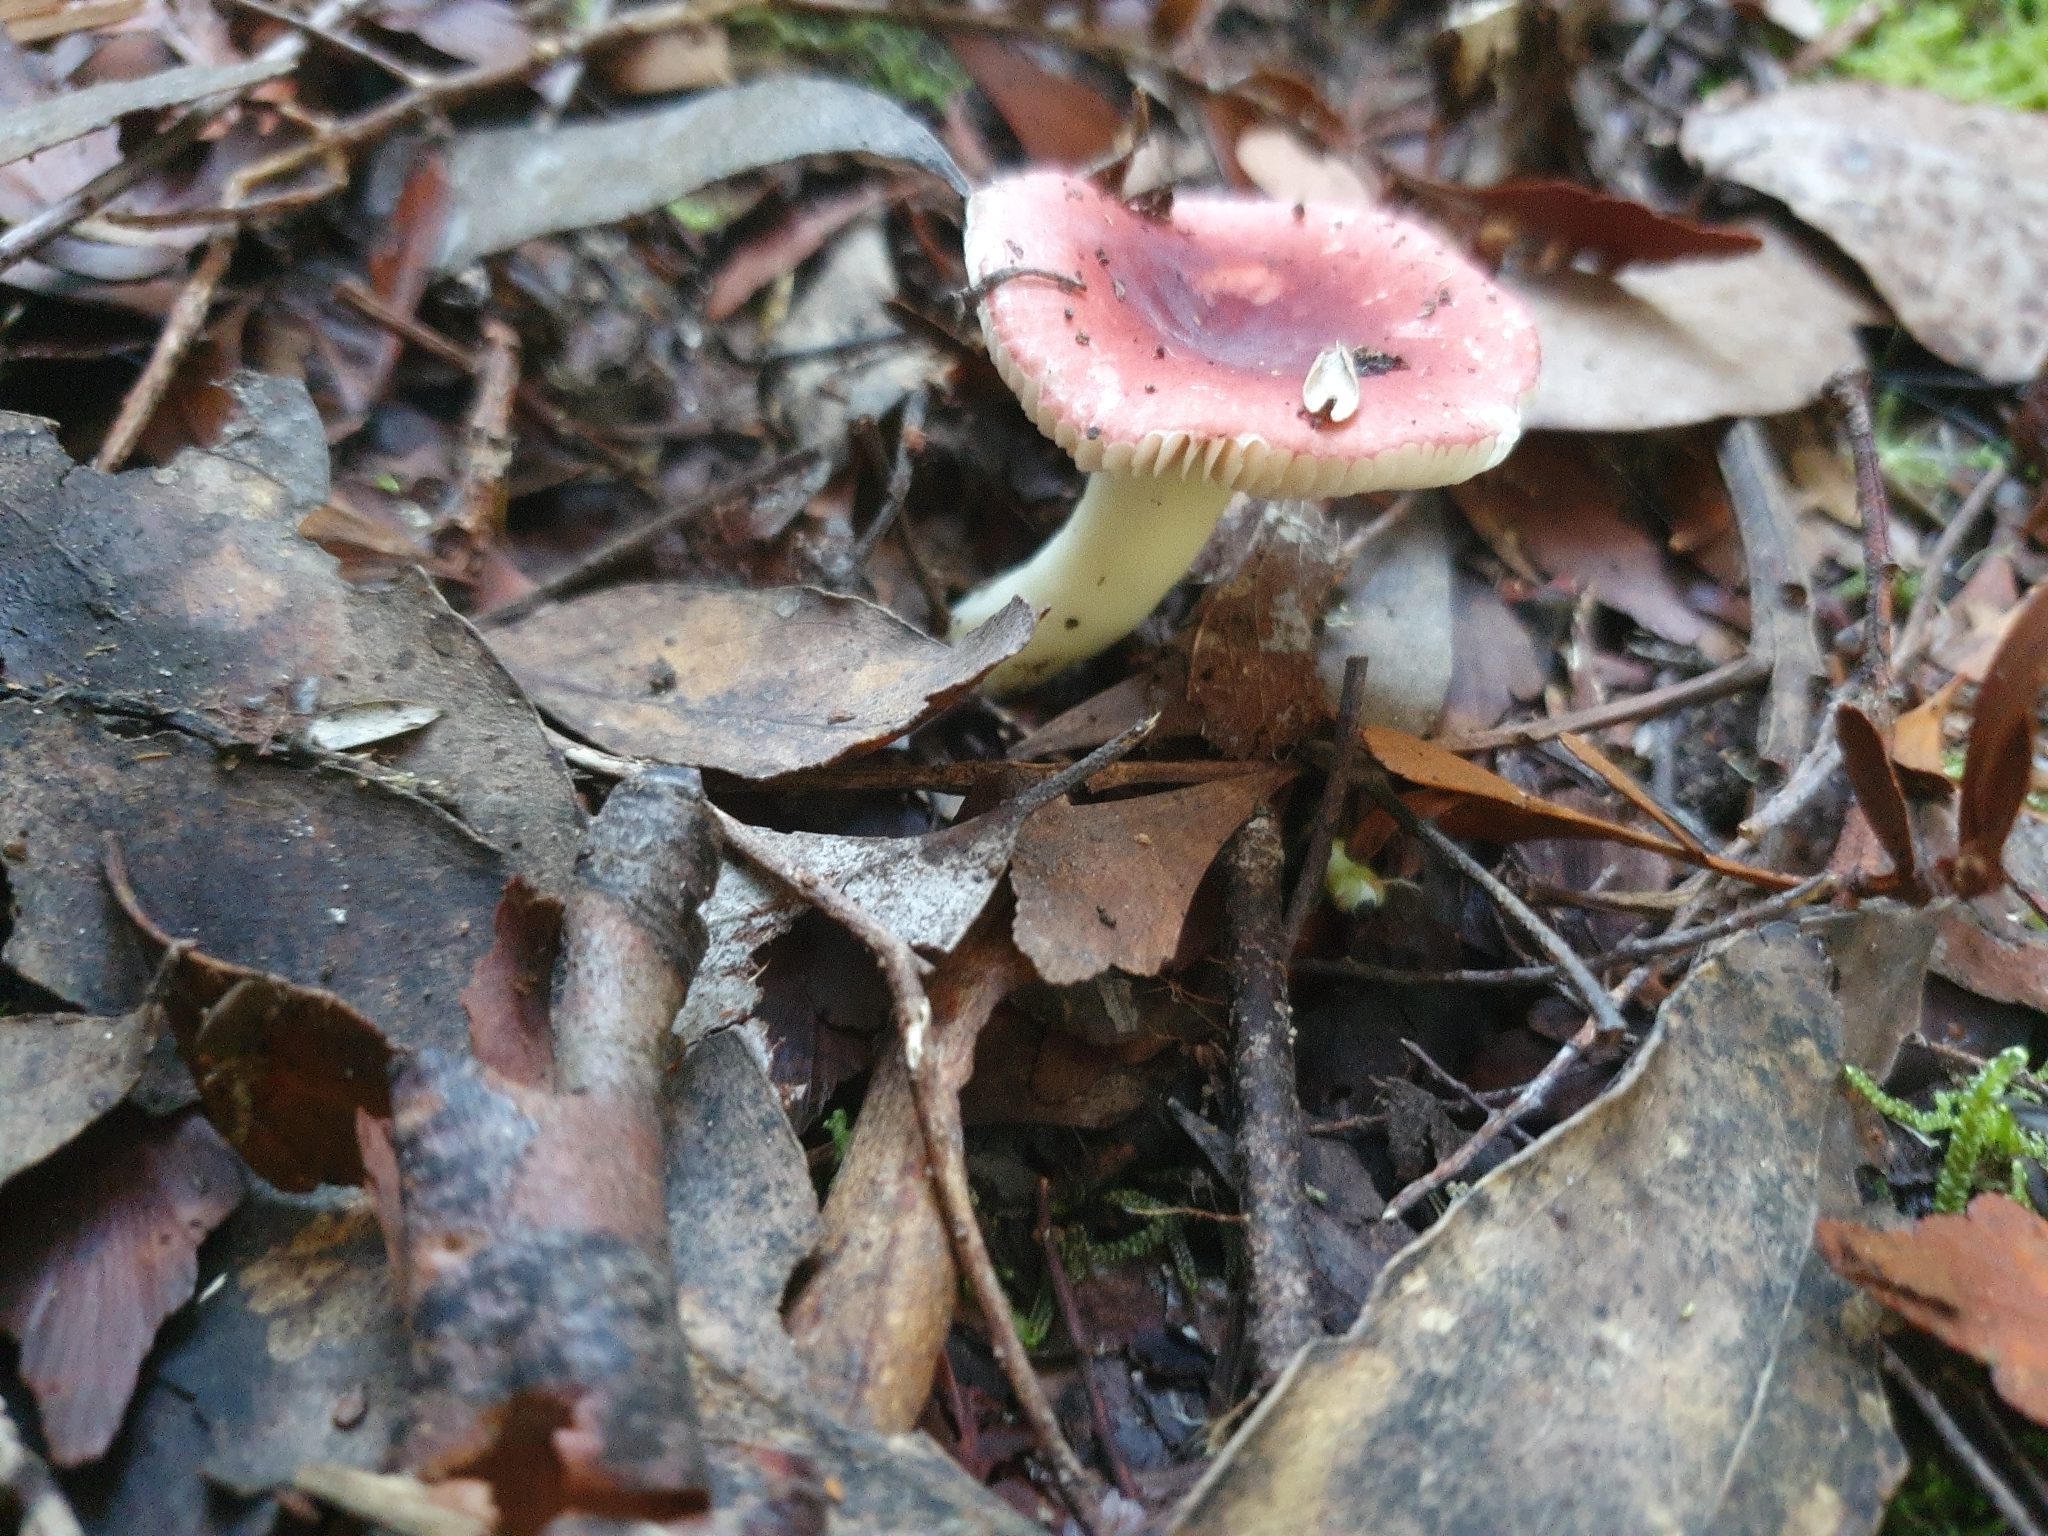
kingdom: Fungi
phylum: Basidiomycota
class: Agaricomycetes
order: Russulales
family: Russulaceae
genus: Russula
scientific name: Russula persanguinea
